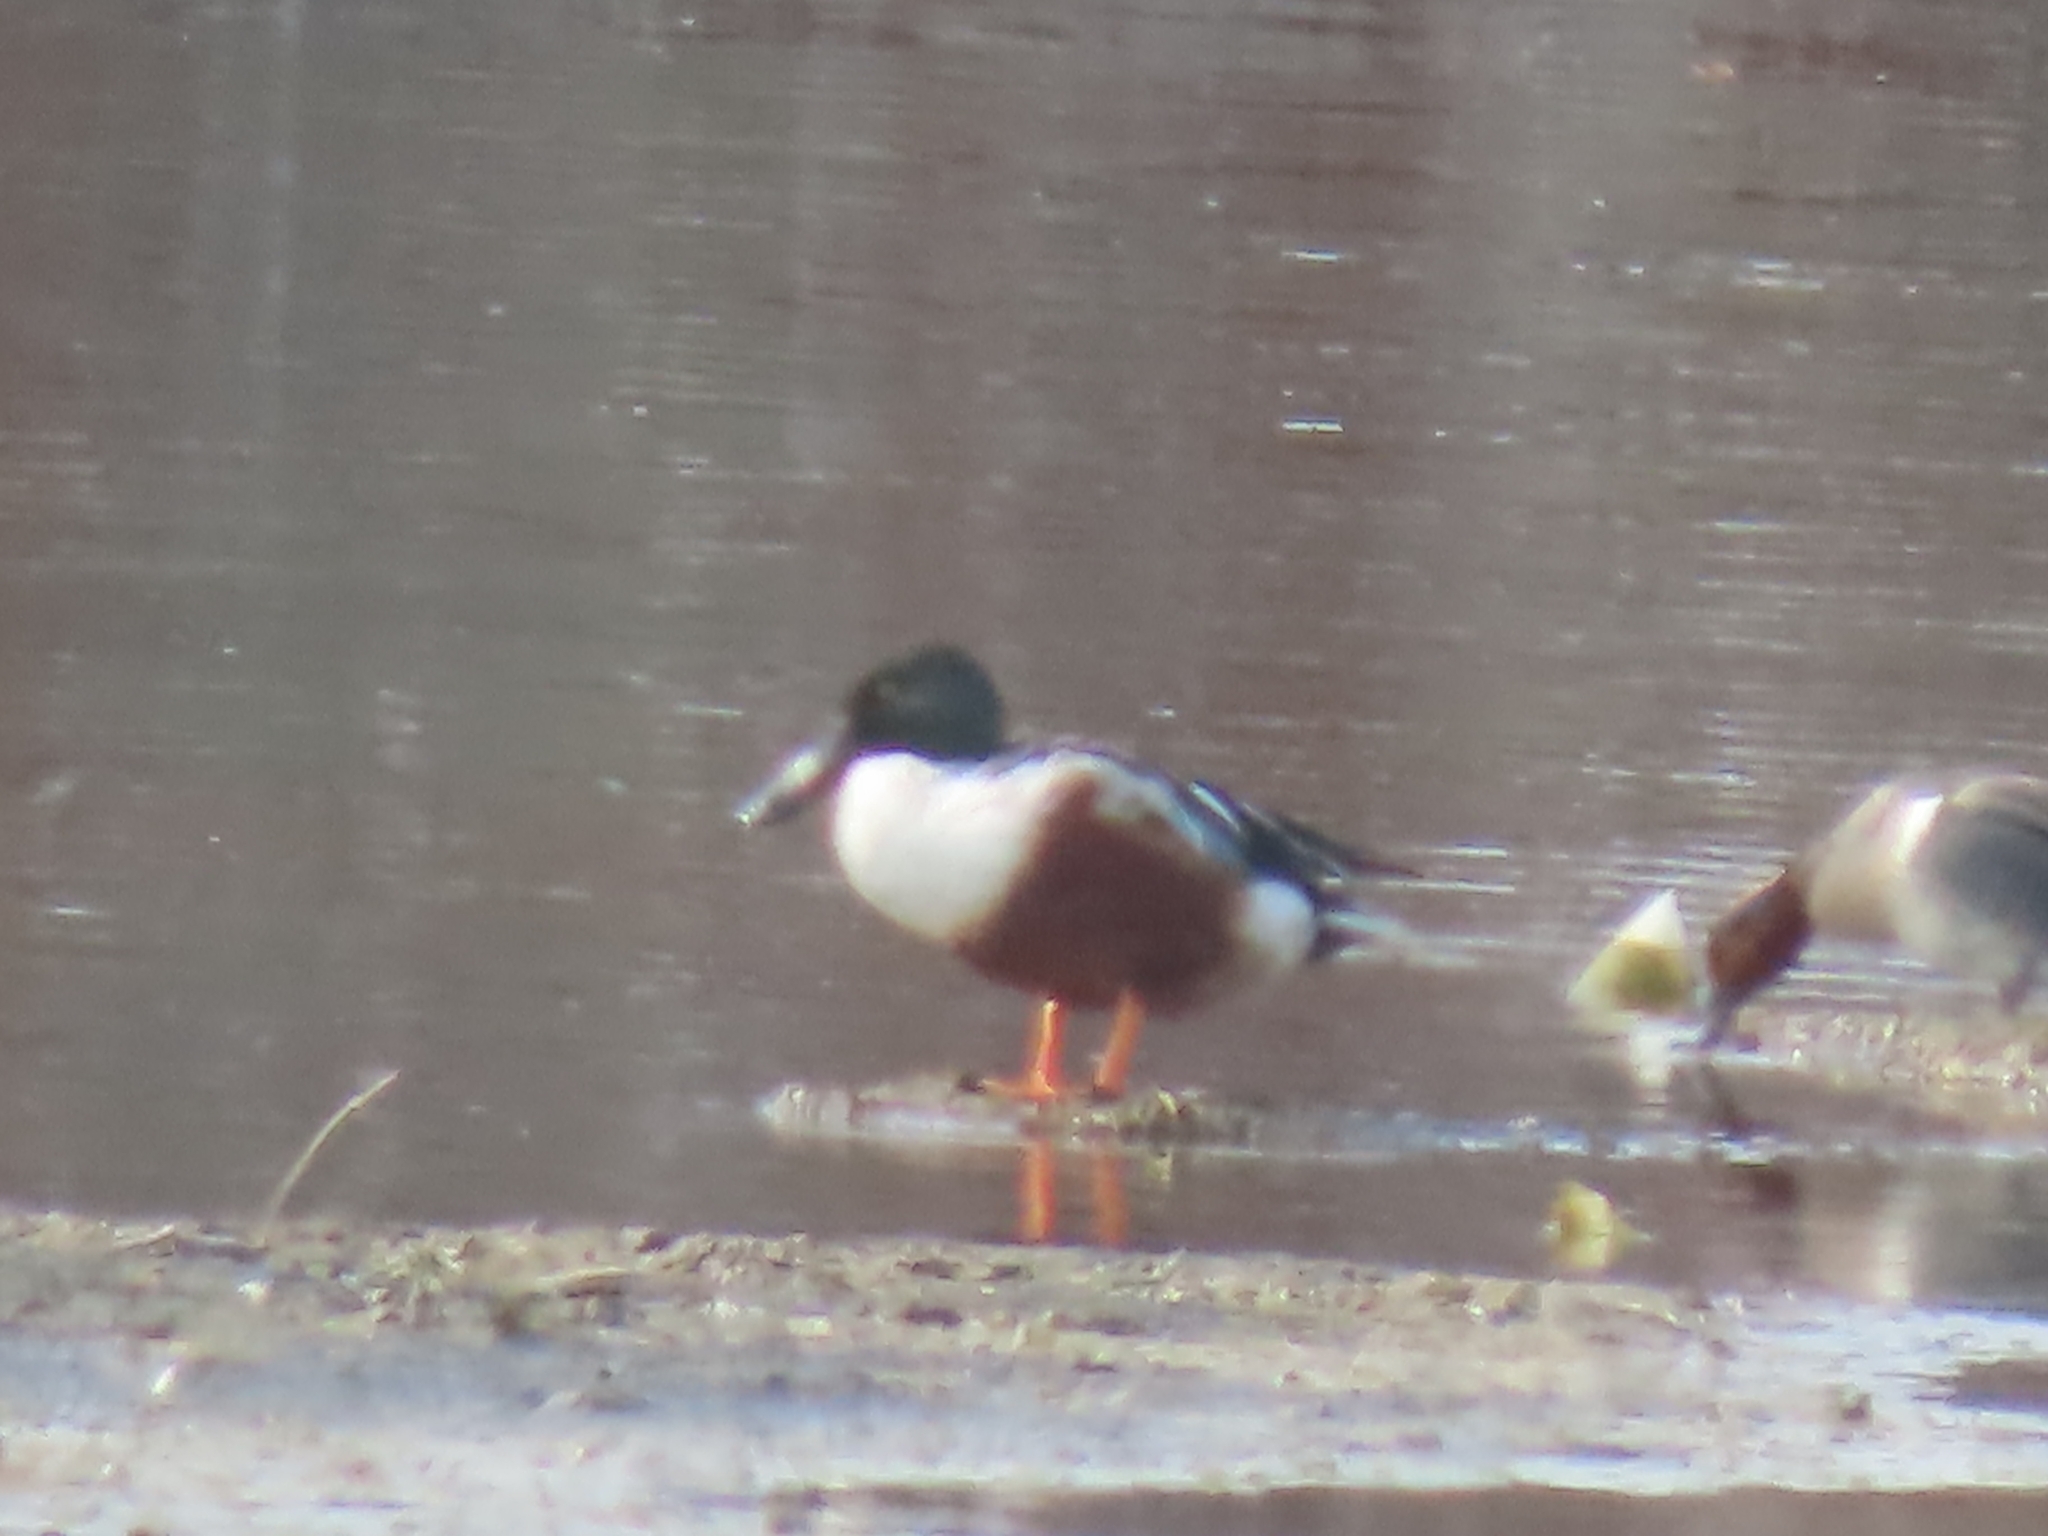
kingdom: Animalia
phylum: Chordata
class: Aves
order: Anseriformes
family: Anatidae
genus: Spatula
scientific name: Spatula clypeata
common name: Northern shoveler
